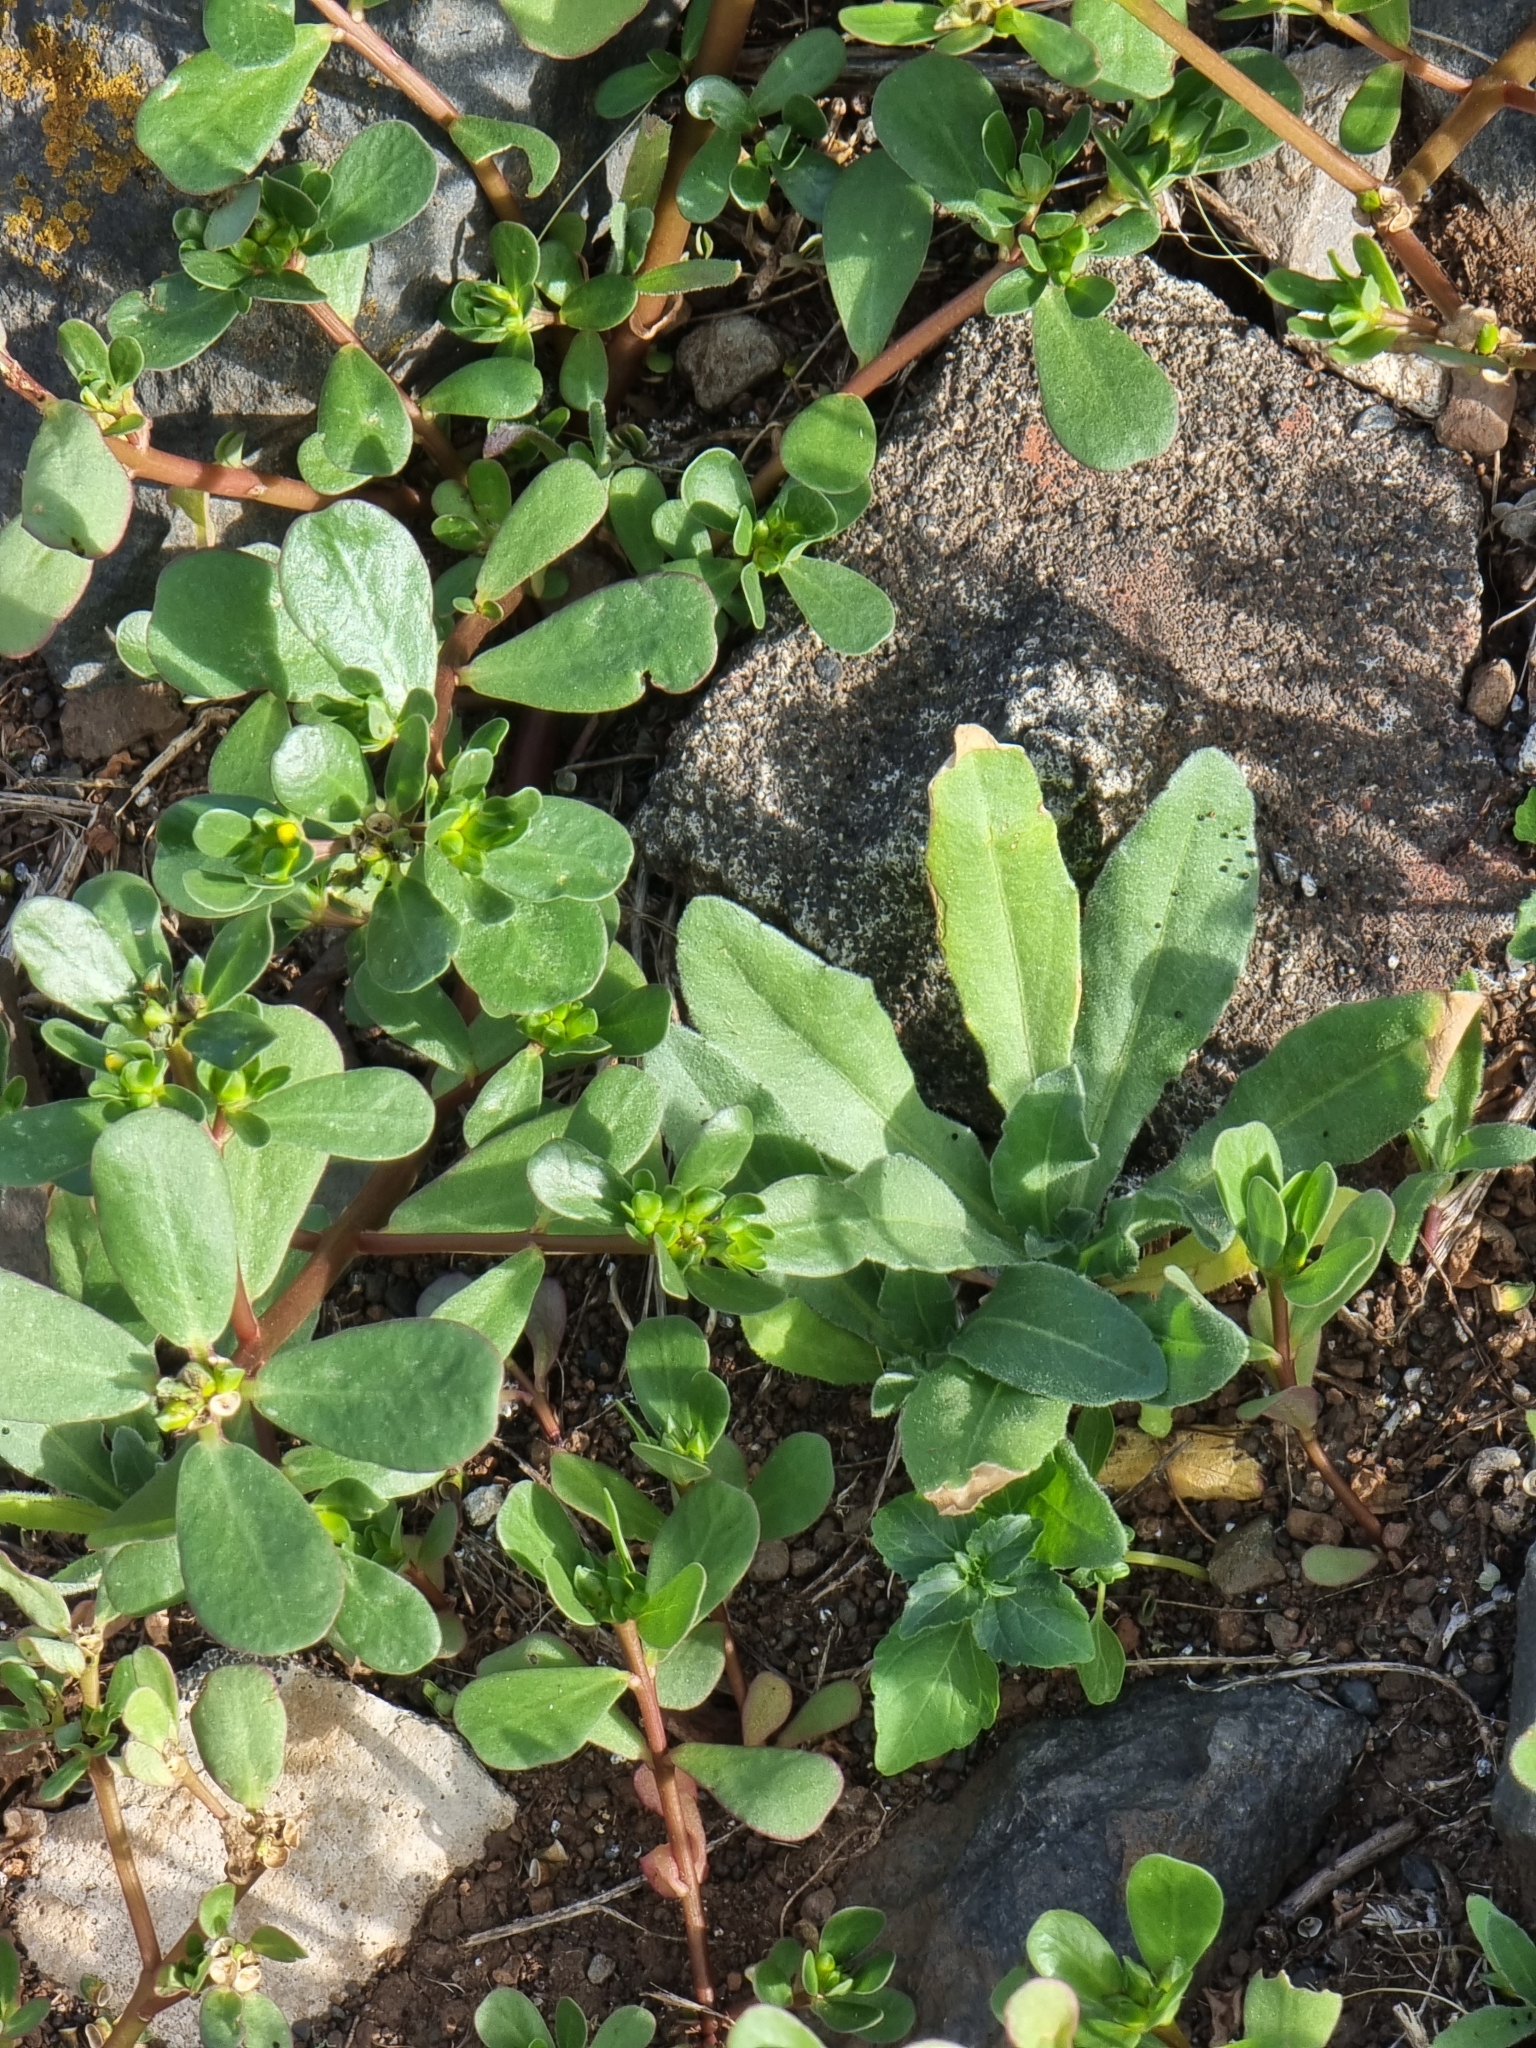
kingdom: Plantae
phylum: Tracheophyta
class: Magnoliopsida
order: Caryophyllales
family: Portulacaceae
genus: Portulaca
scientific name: Portulaca oleracea
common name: Common purslane
